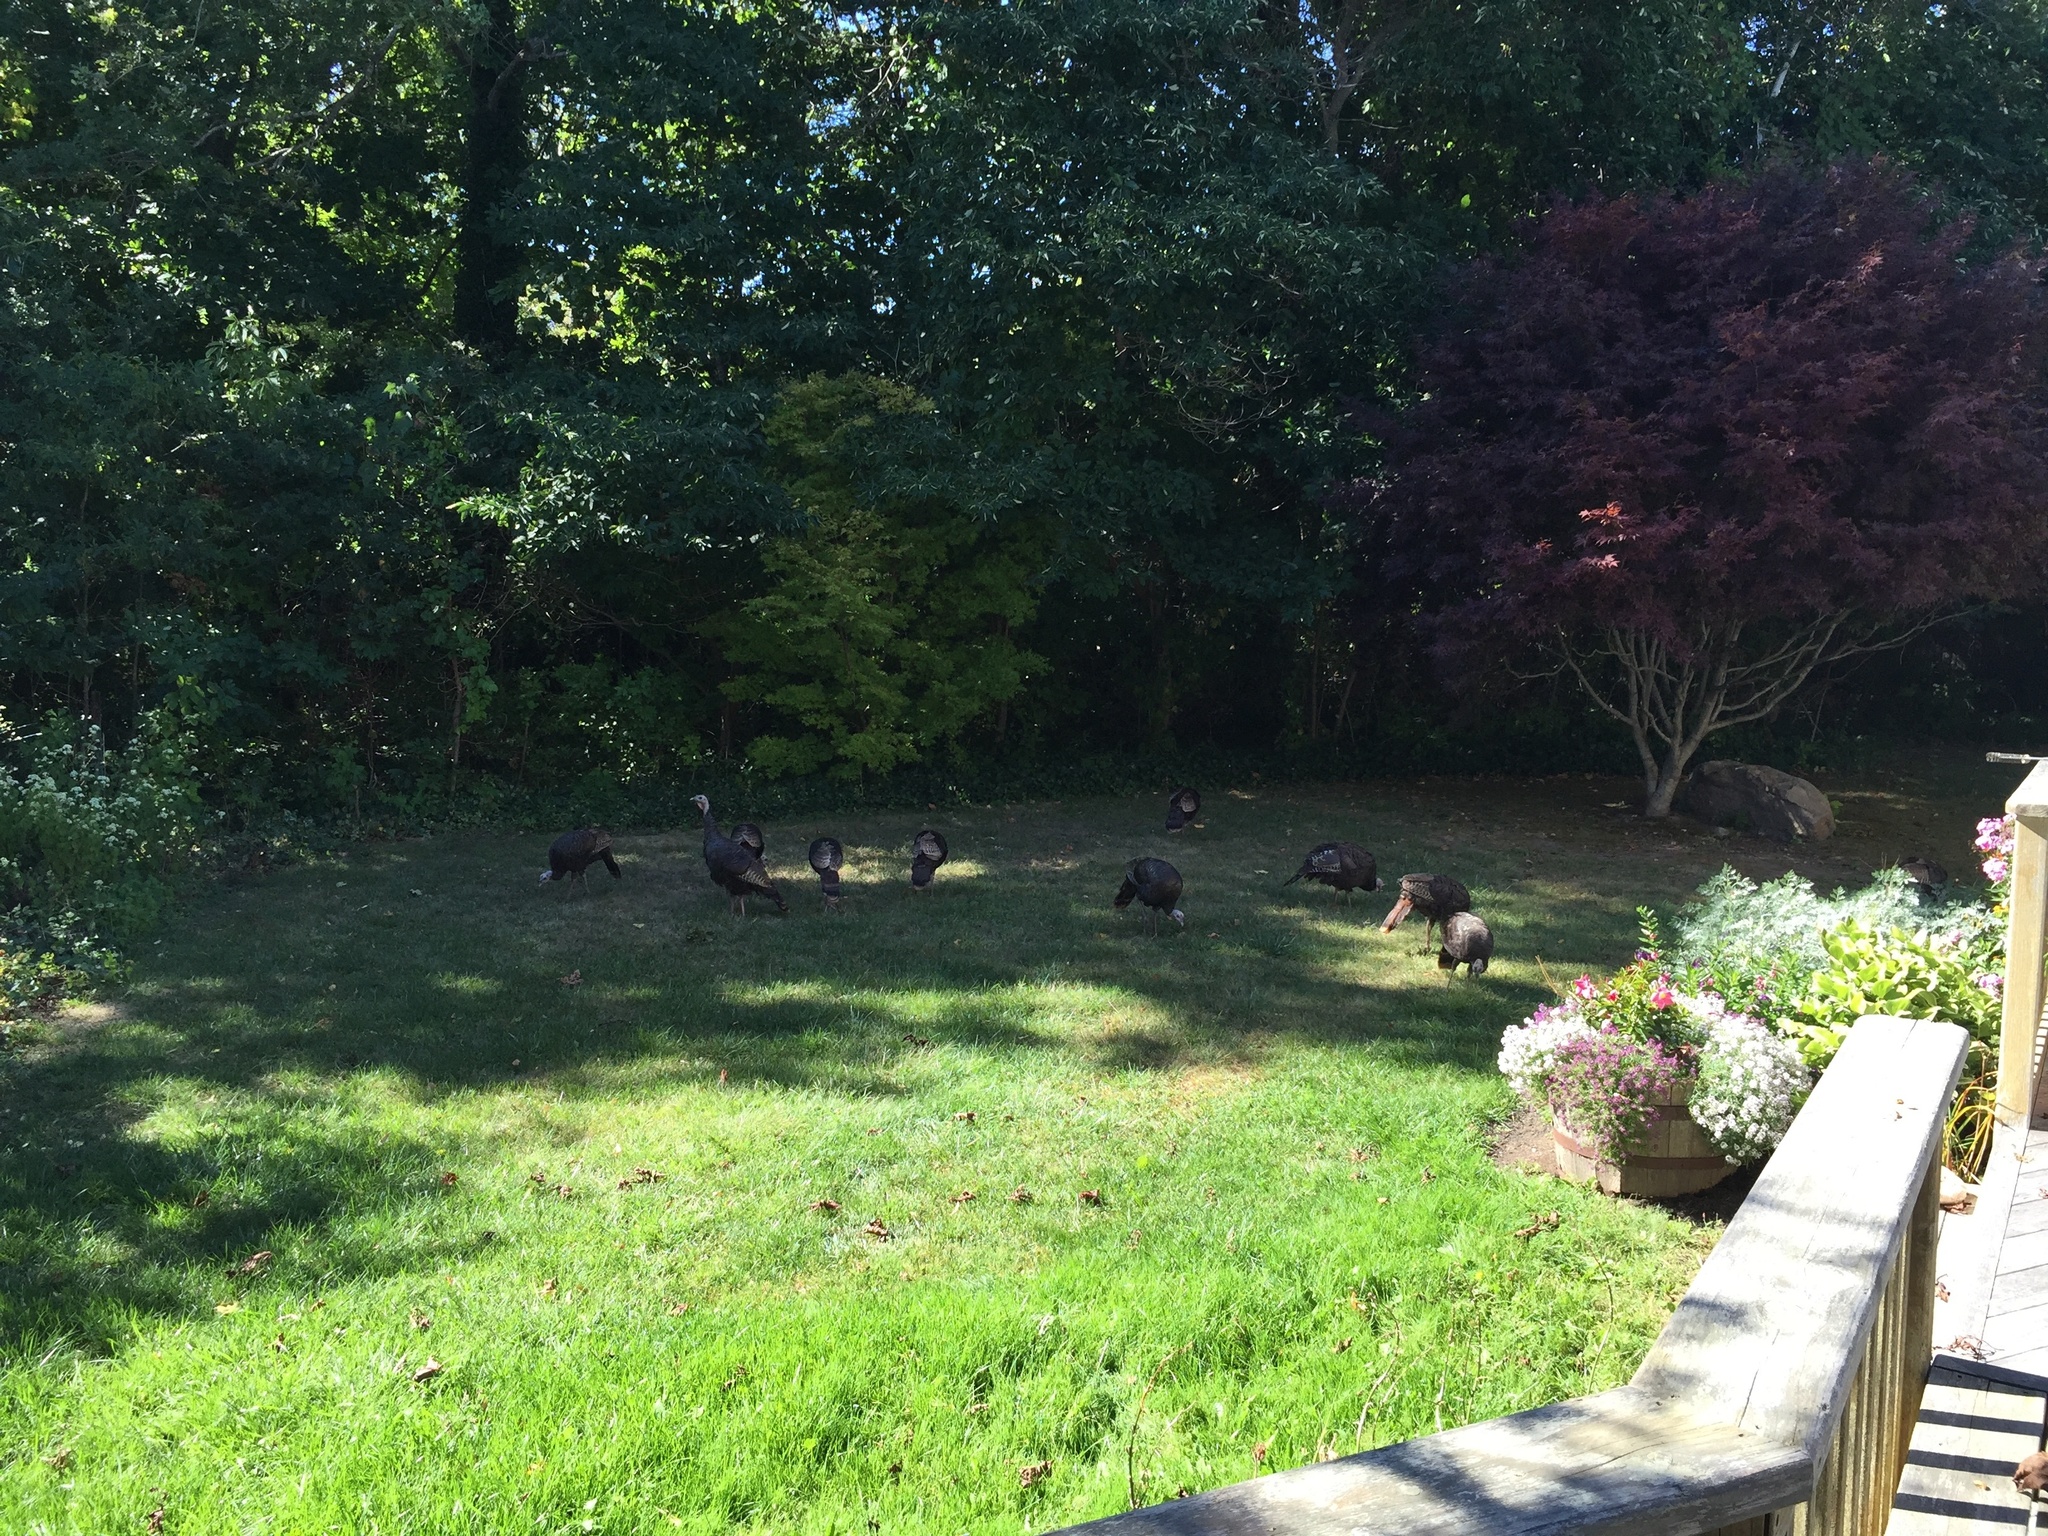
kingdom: Animalia
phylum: Chordata
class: Aves
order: Galliformes
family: Phasianidae
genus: Meleagris
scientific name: Meleagris gallopavo
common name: Wild turkey
